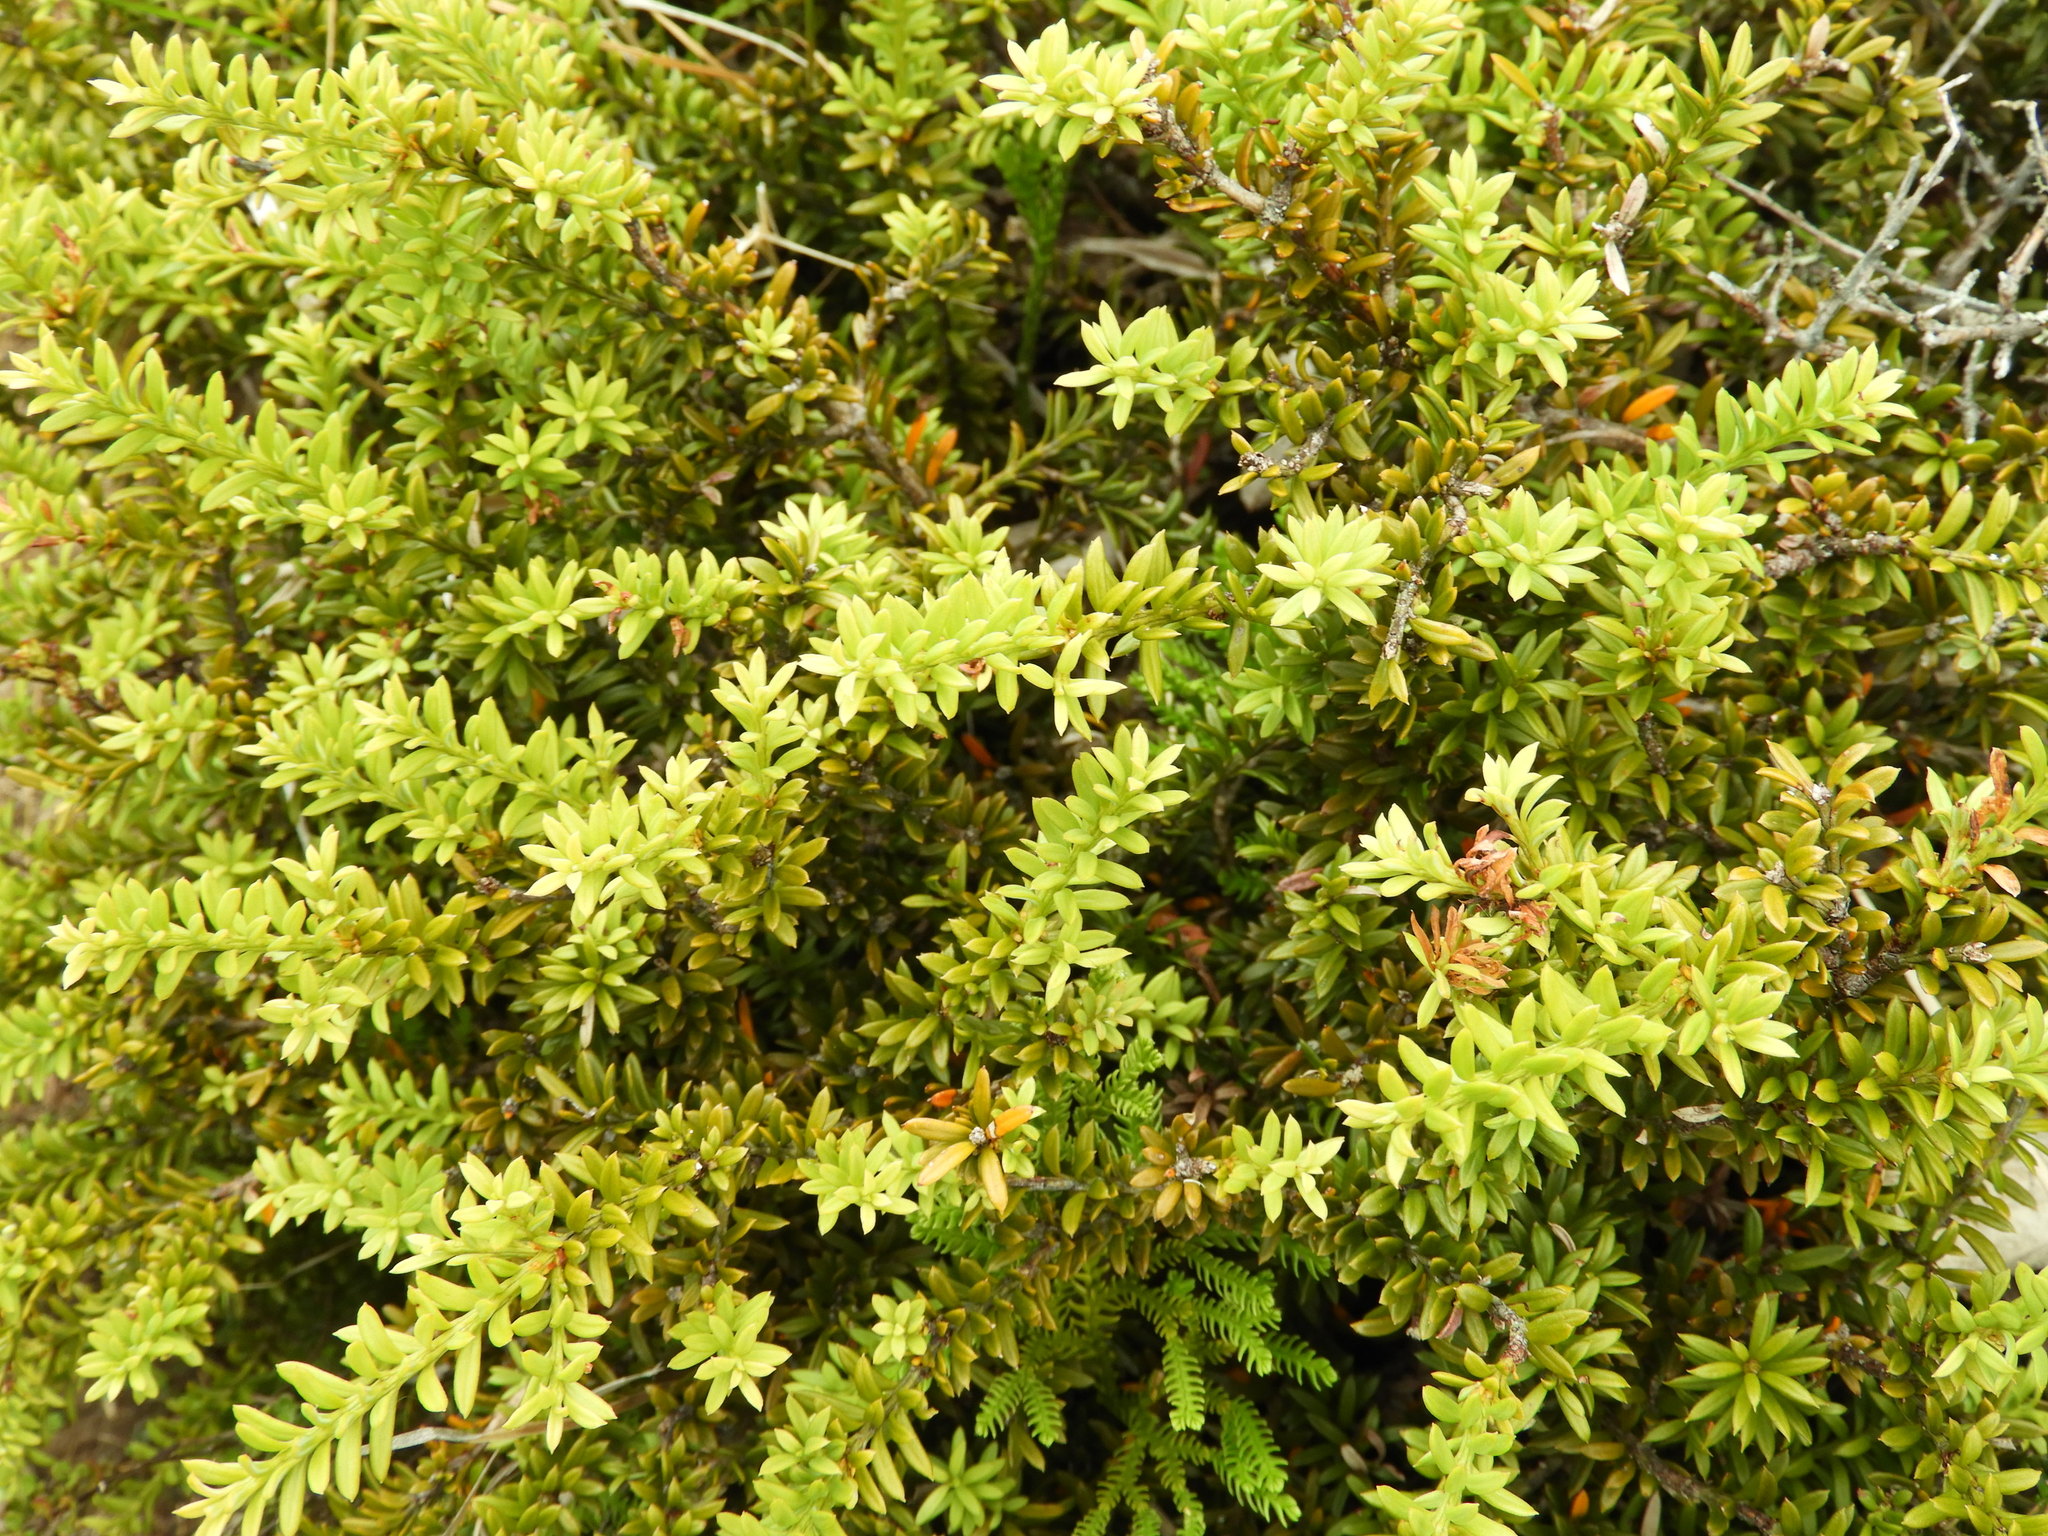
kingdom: Plantae
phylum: Tracheophyta
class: Pinopsida
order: Pinales
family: Podocarpaceae
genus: Podocarpus
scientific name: Podocarpus nivalis
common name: Alpine totara
